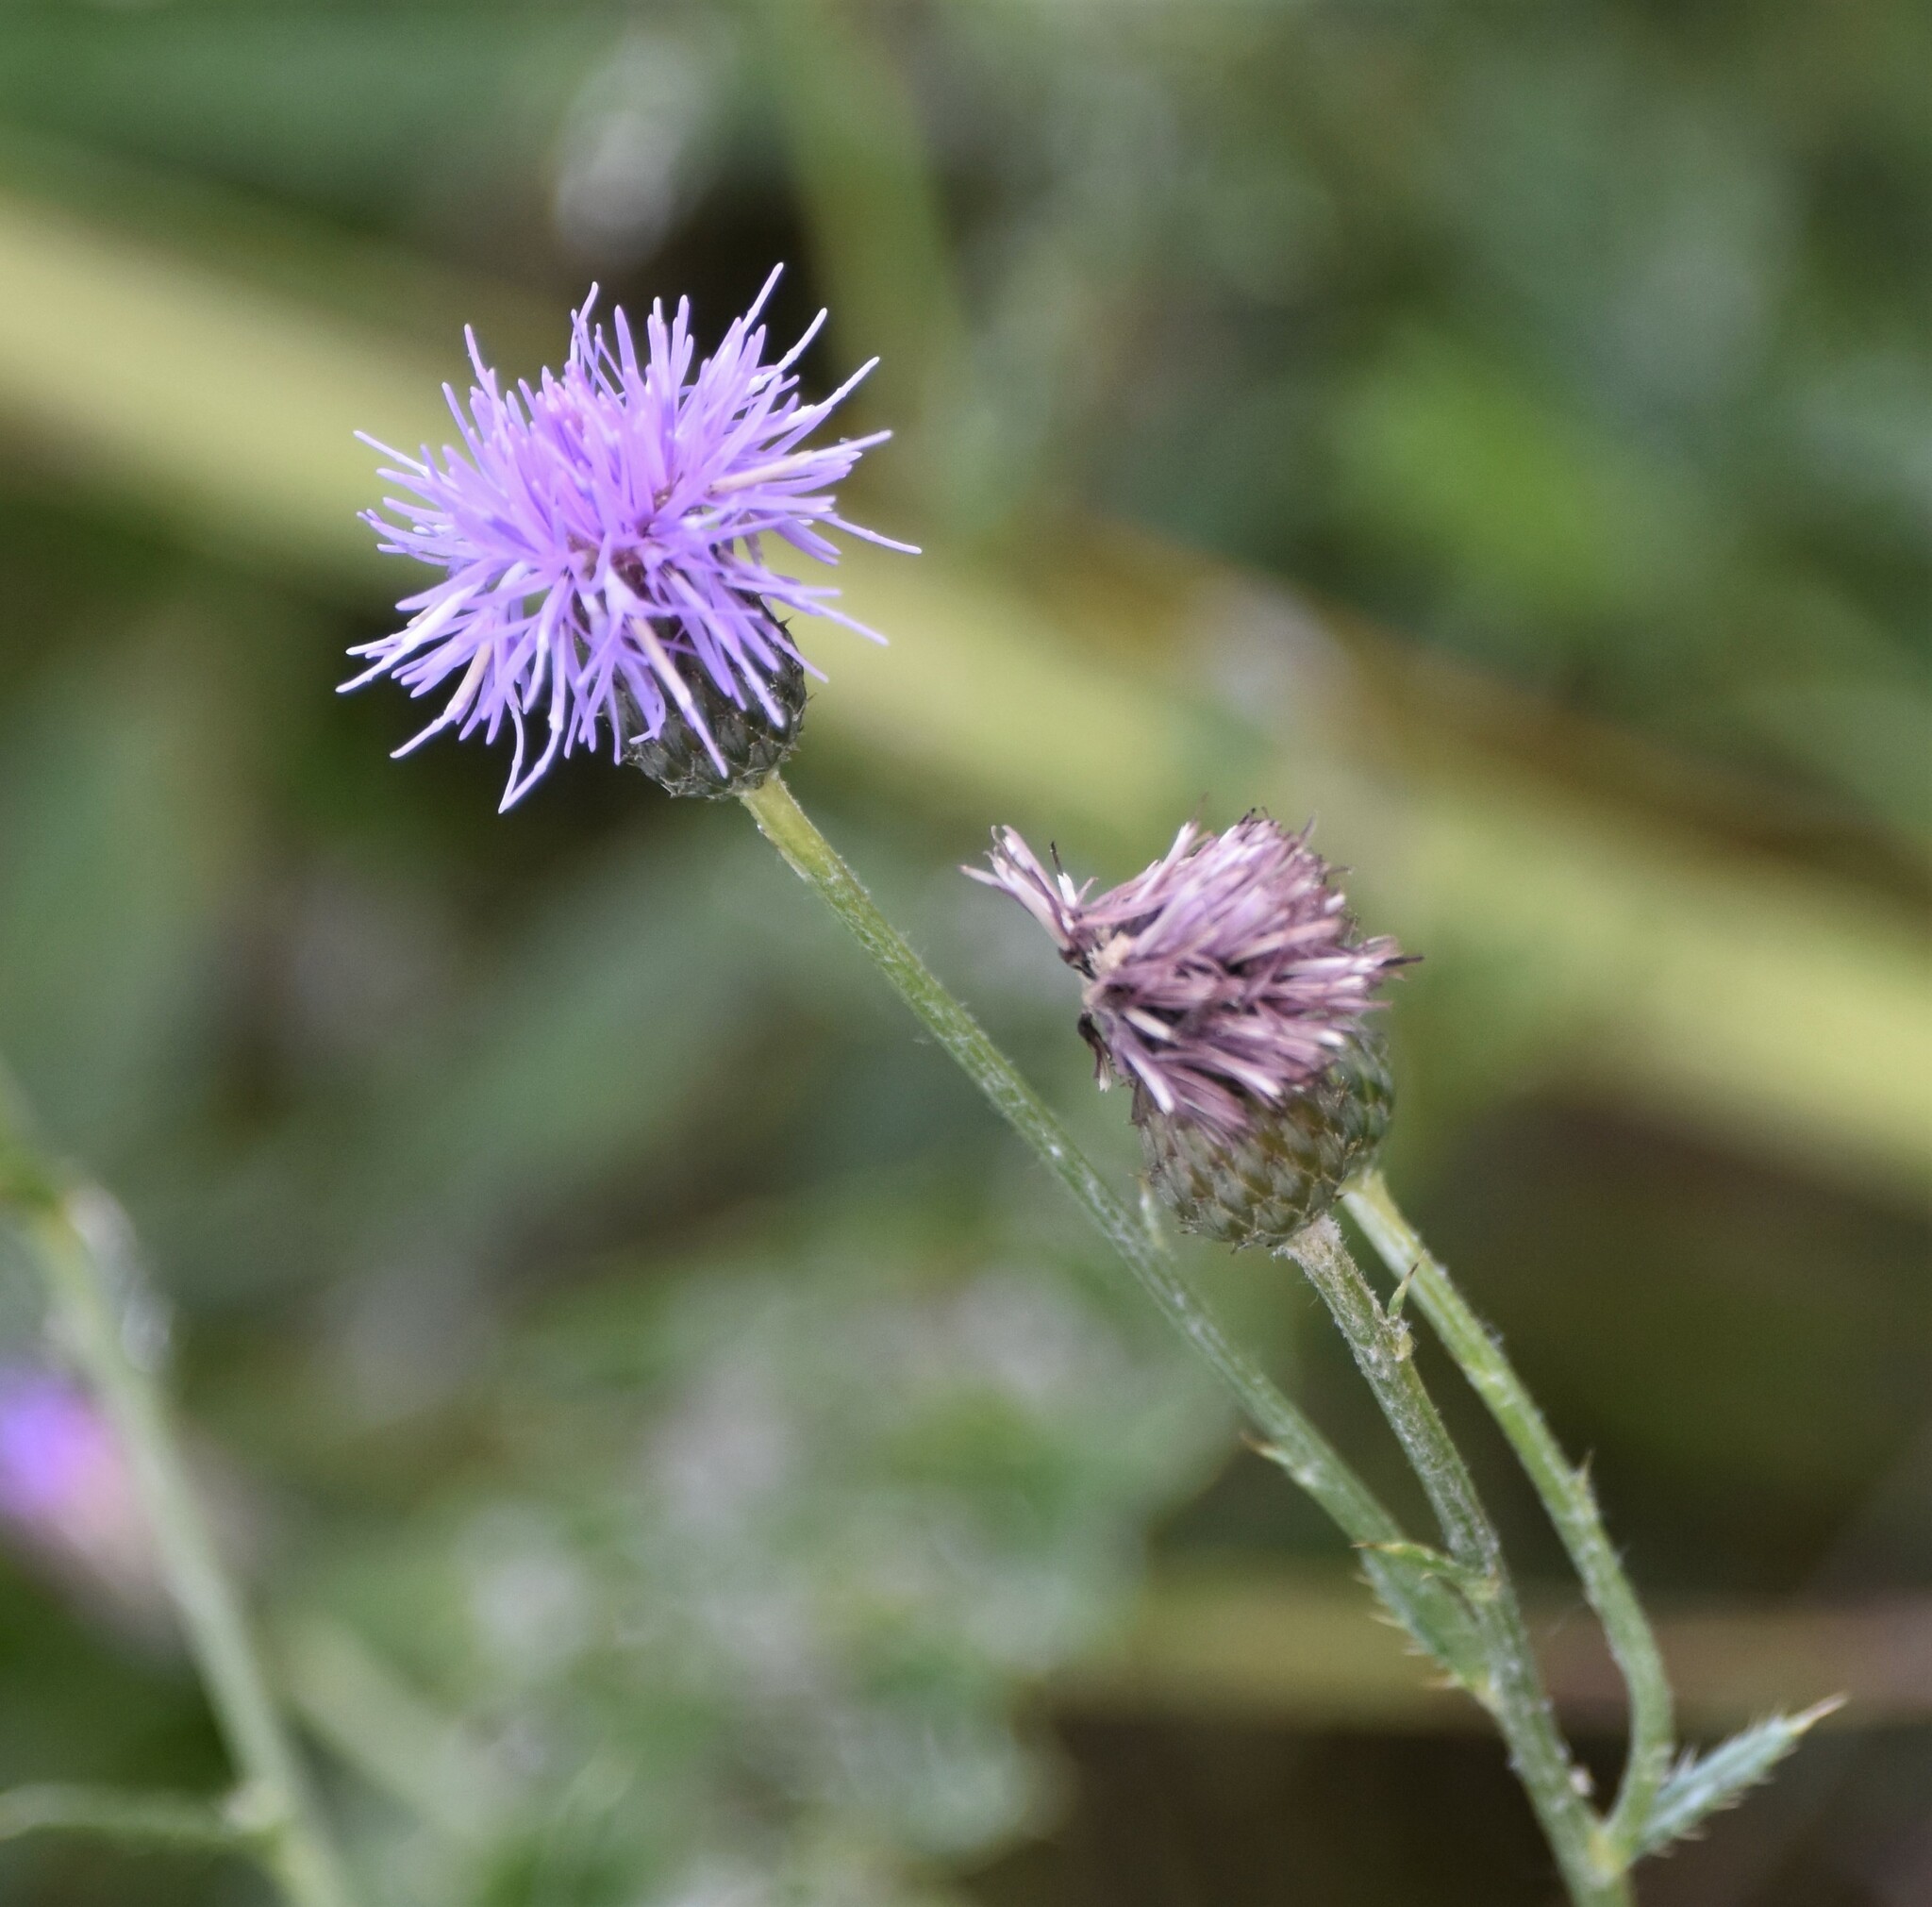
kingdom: Plantae
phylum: Tracheophyta
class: Magnoliopsida
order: Asterales
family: Asteraceae
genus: Cirsium
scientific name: Cirsium arvense
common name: Creeping thistle
